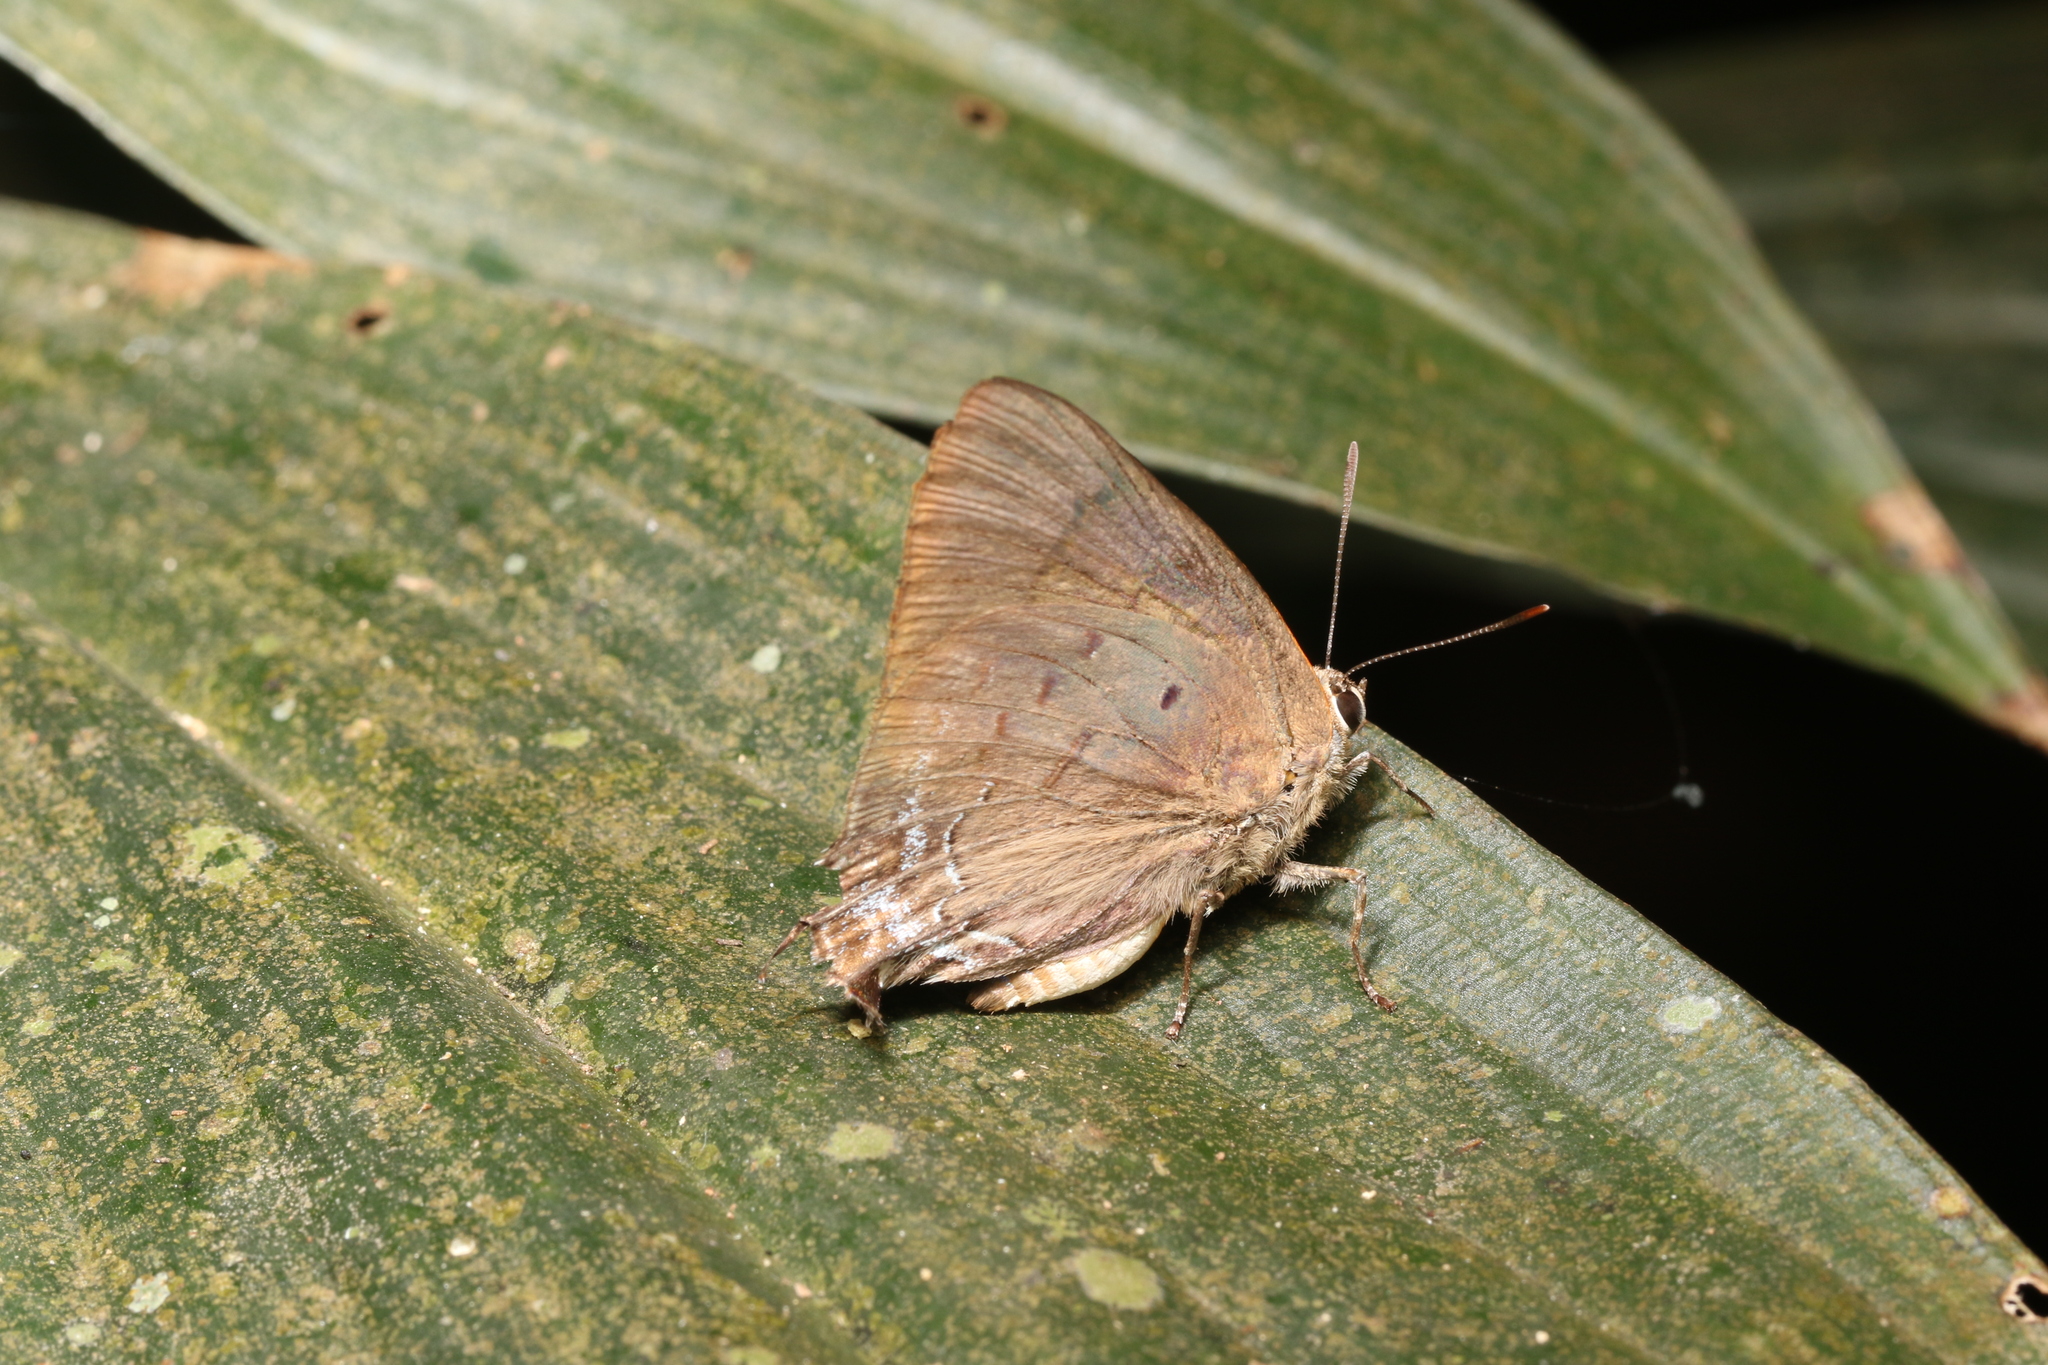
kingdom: Animalia
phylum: Arthropoda
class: Insecta
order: Lepidoptera
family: Lycaenidae
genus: Thecla
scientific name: Thecla thyrea
